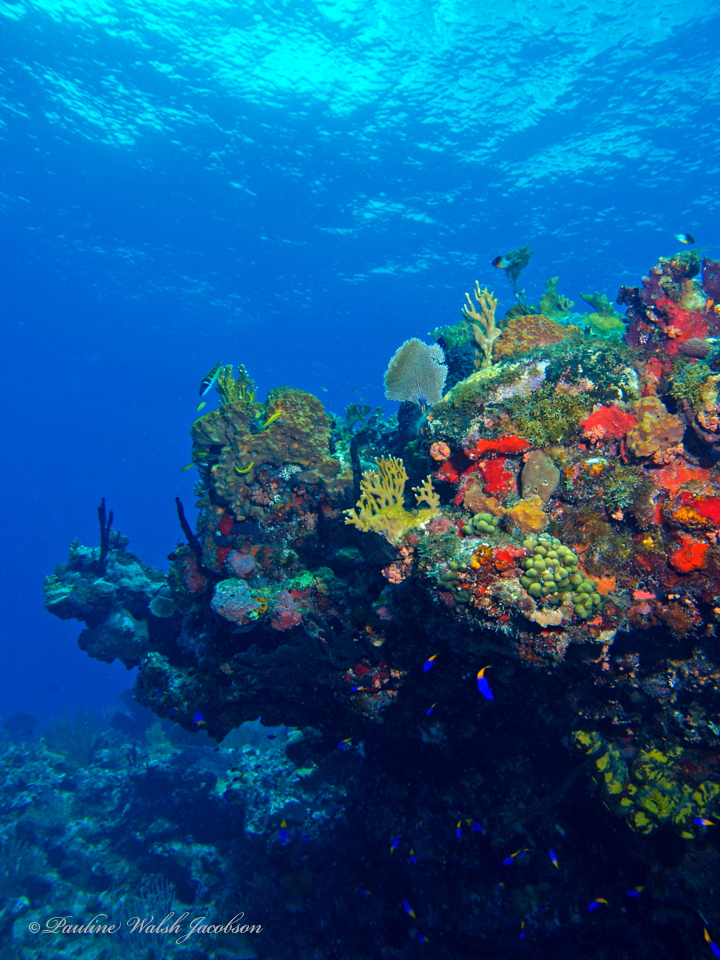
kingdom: Animalia
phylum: Chordata
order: Perciformes
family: Grammatidae
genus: Gramma
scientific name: Gramma loreto
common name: Fairy basslet
